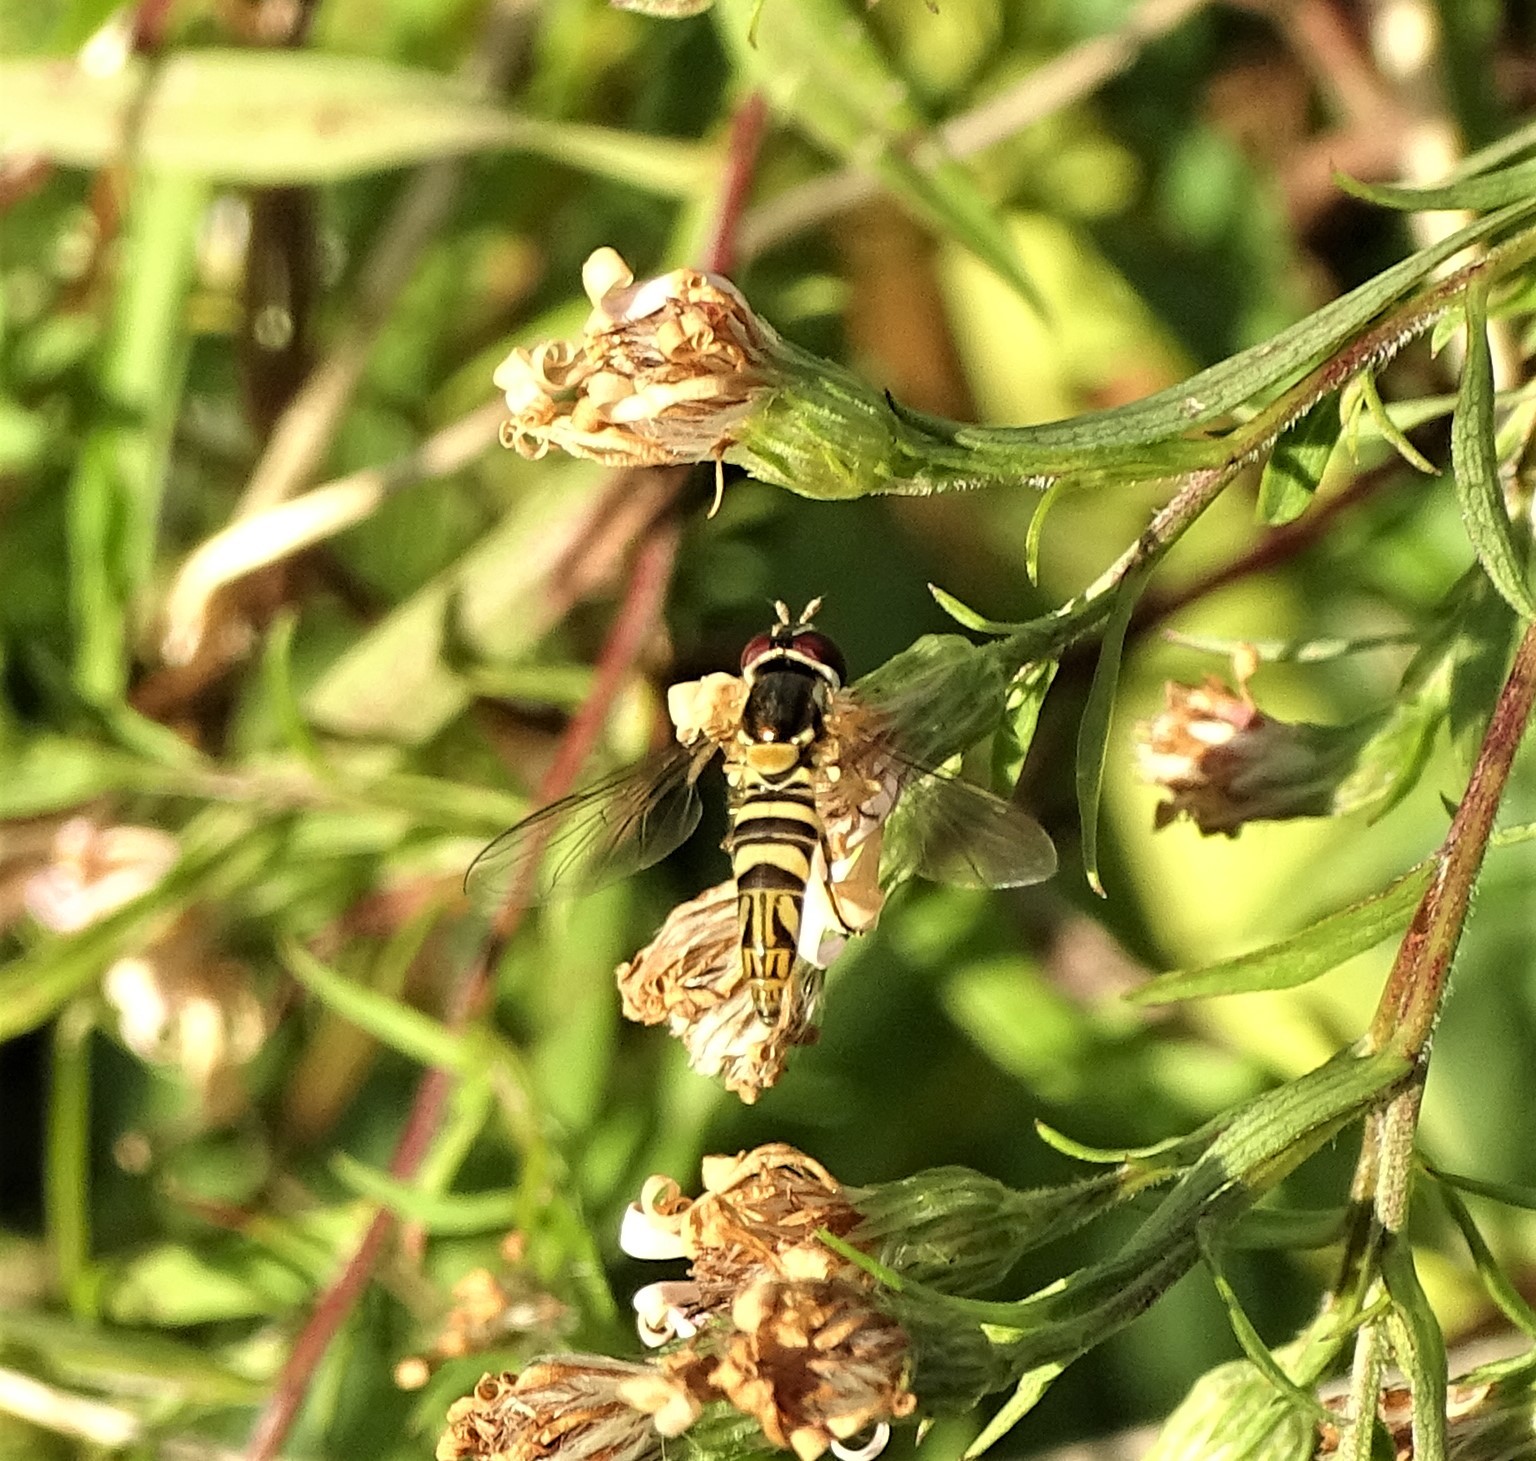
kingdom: Animalia
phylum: Arthropoda
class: Insecta
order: Diptera
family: Syrphidae
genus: Allograpta
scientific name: Allograpta obliqua
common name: Common oblique syrphid
